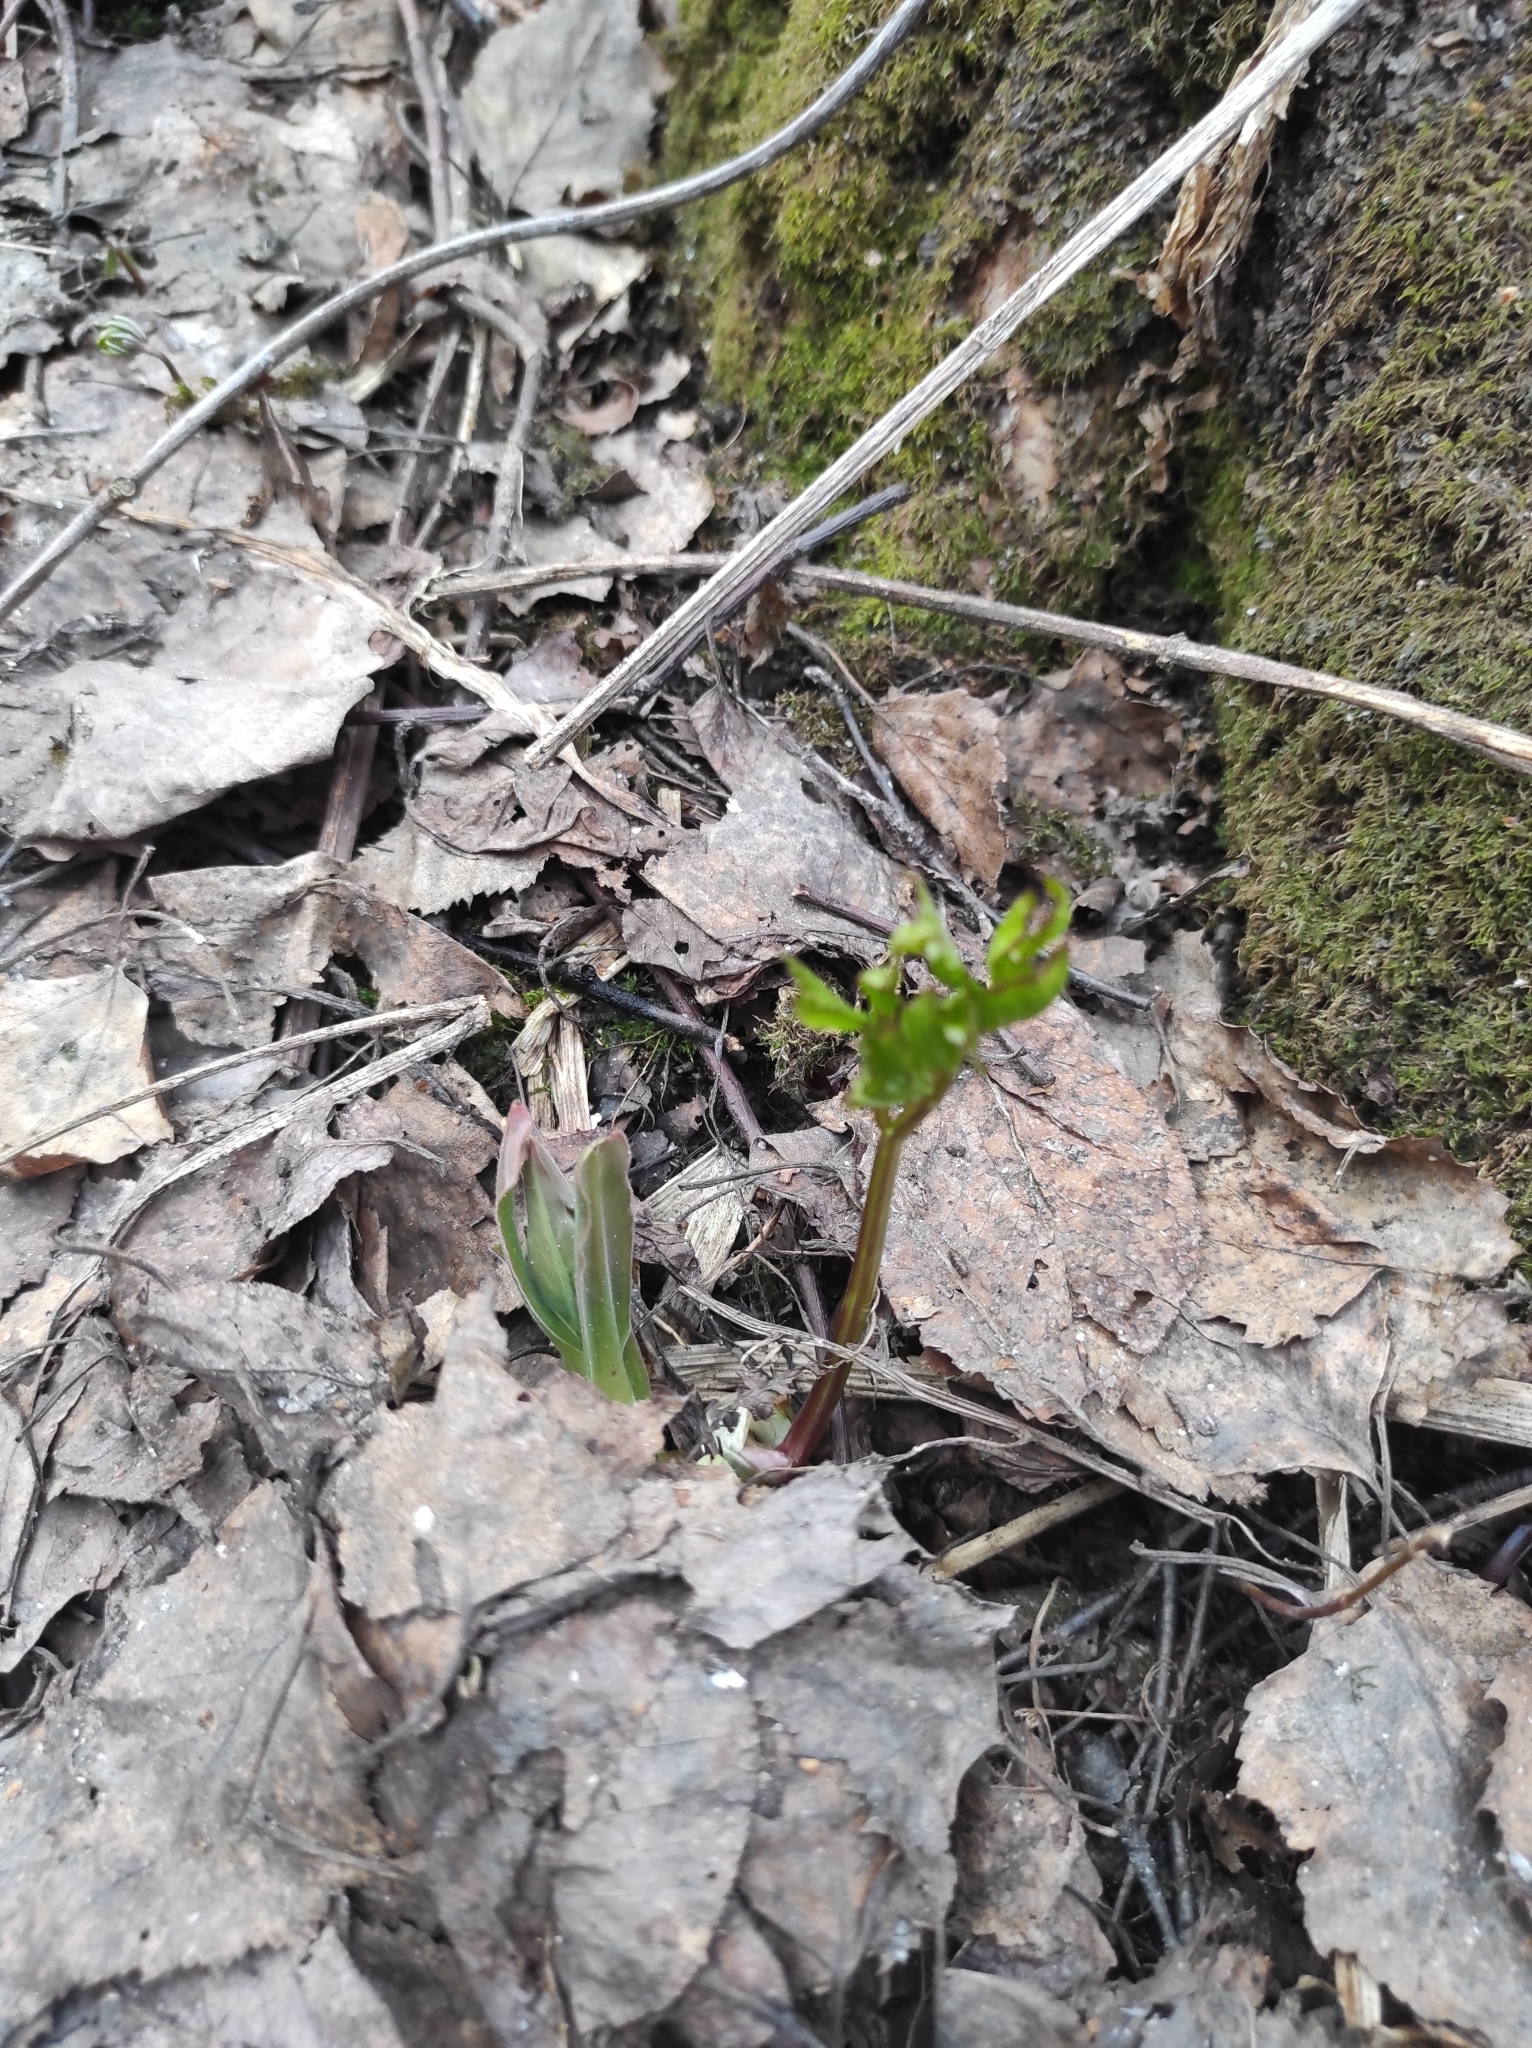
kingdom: Plantae
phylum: Tracheophyta
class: Magnoliopsida
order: Apiales
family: Apiaceae
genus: Aegopodium
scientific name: Aegopodium podagraria
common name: Ground-elder
